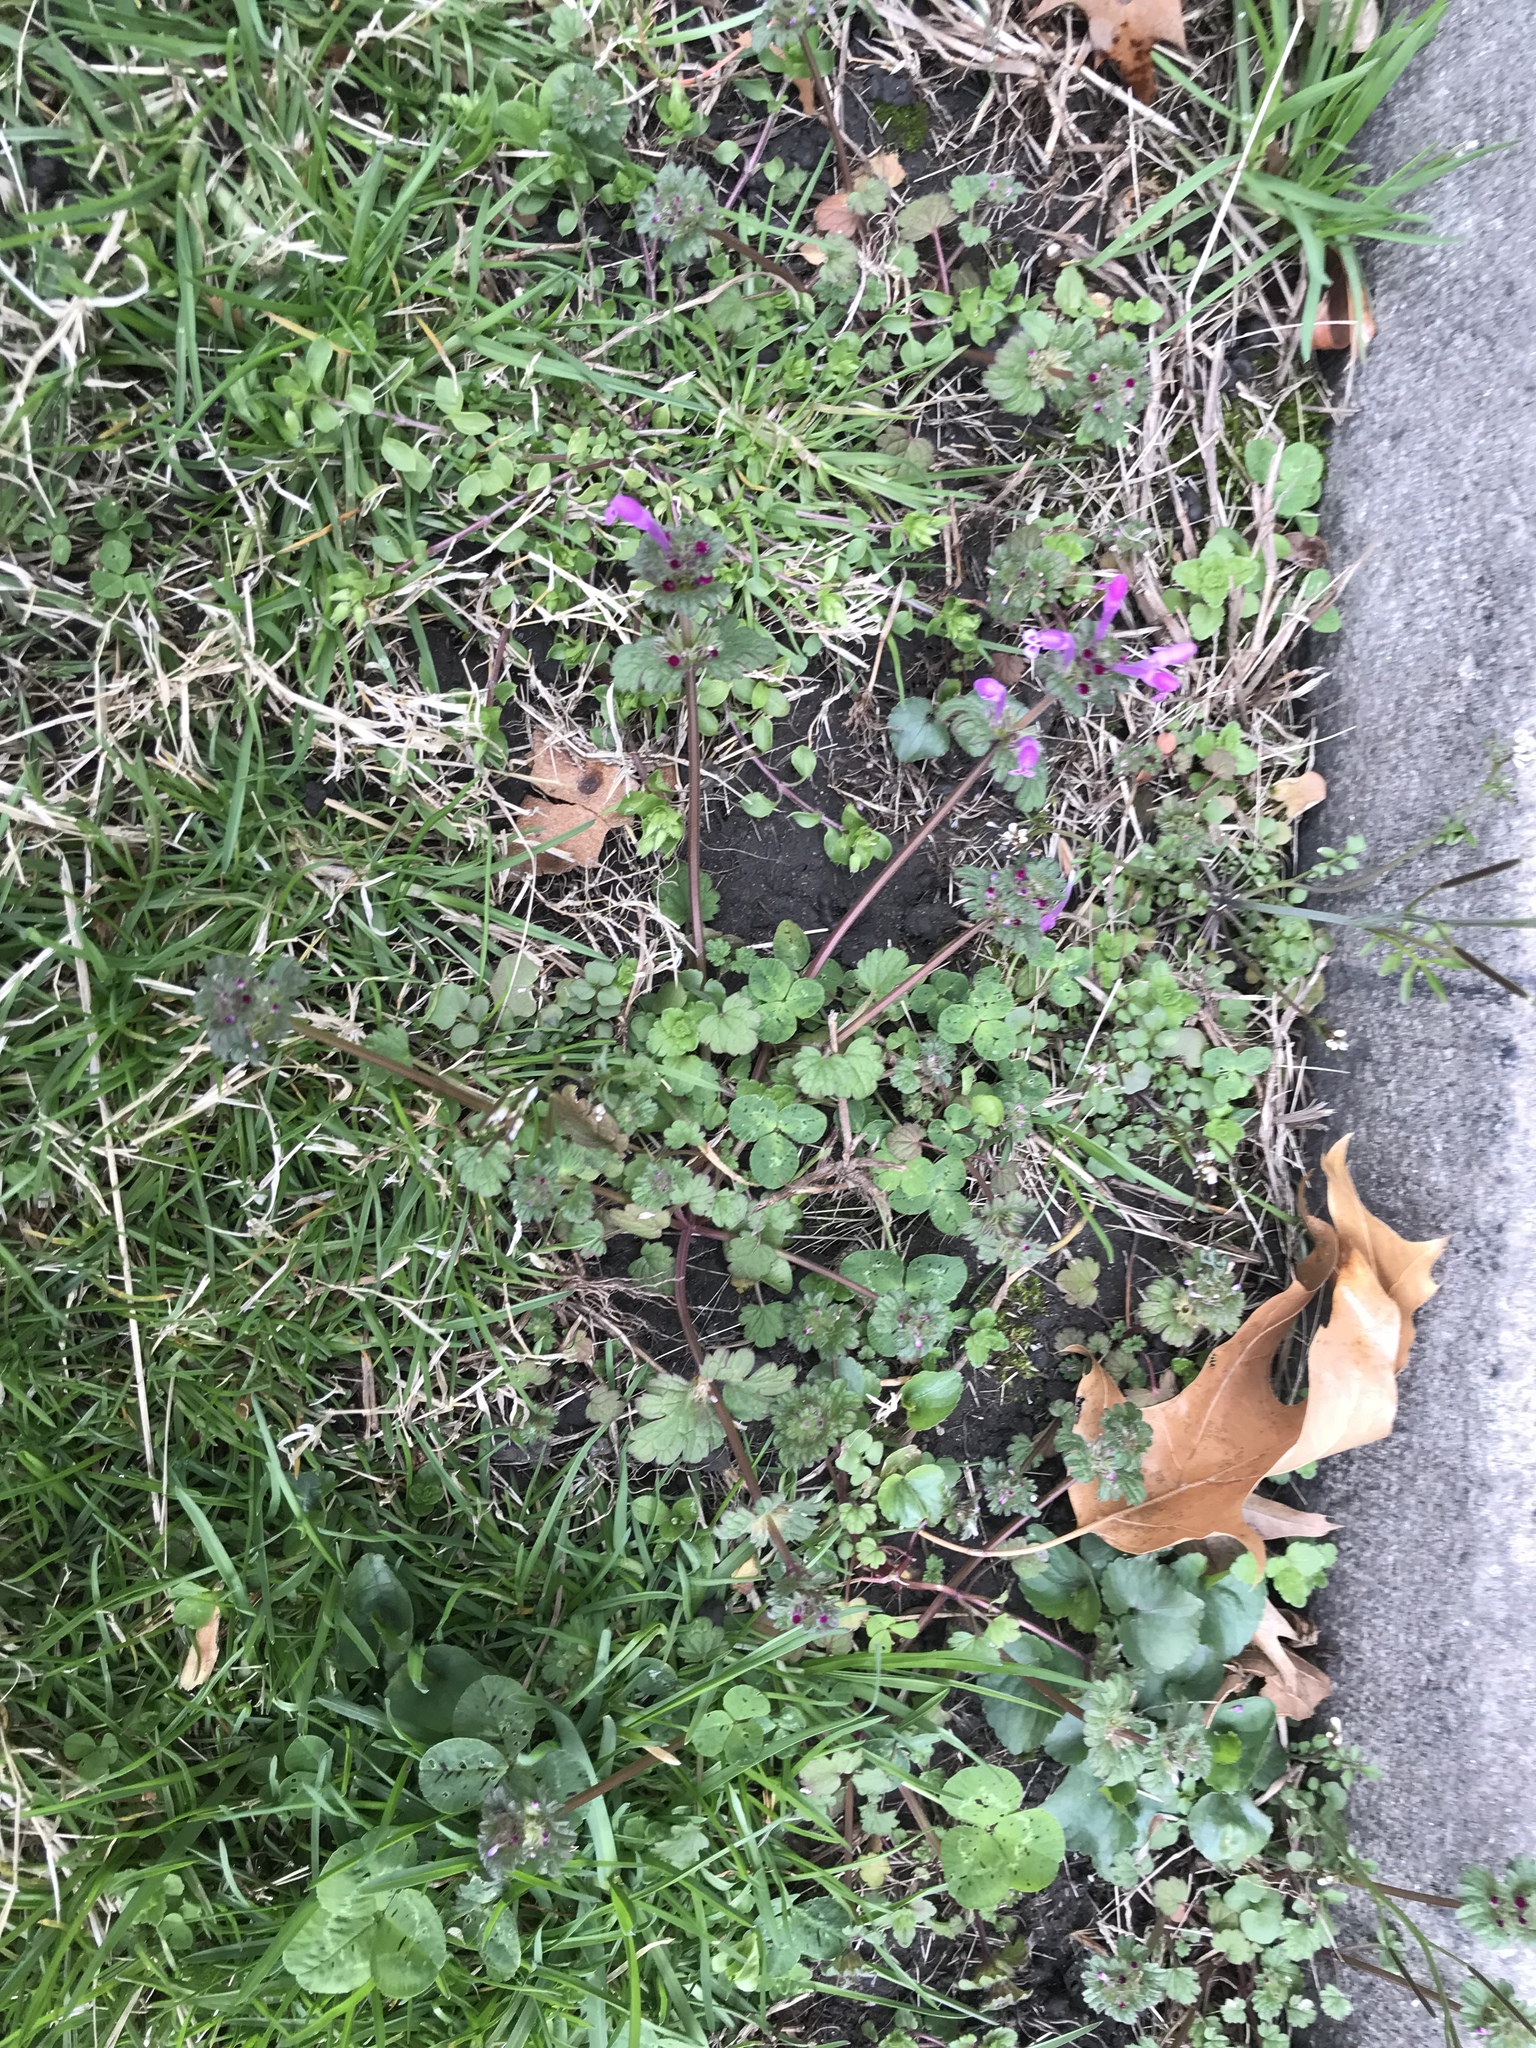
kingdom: Plantae
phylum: Tracheophyta
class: Magnoliopsida
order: Lamiales
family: Lamiaceae
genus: Lamium
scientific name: Lamium amplexicaule
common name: Henbit dead-nettle
